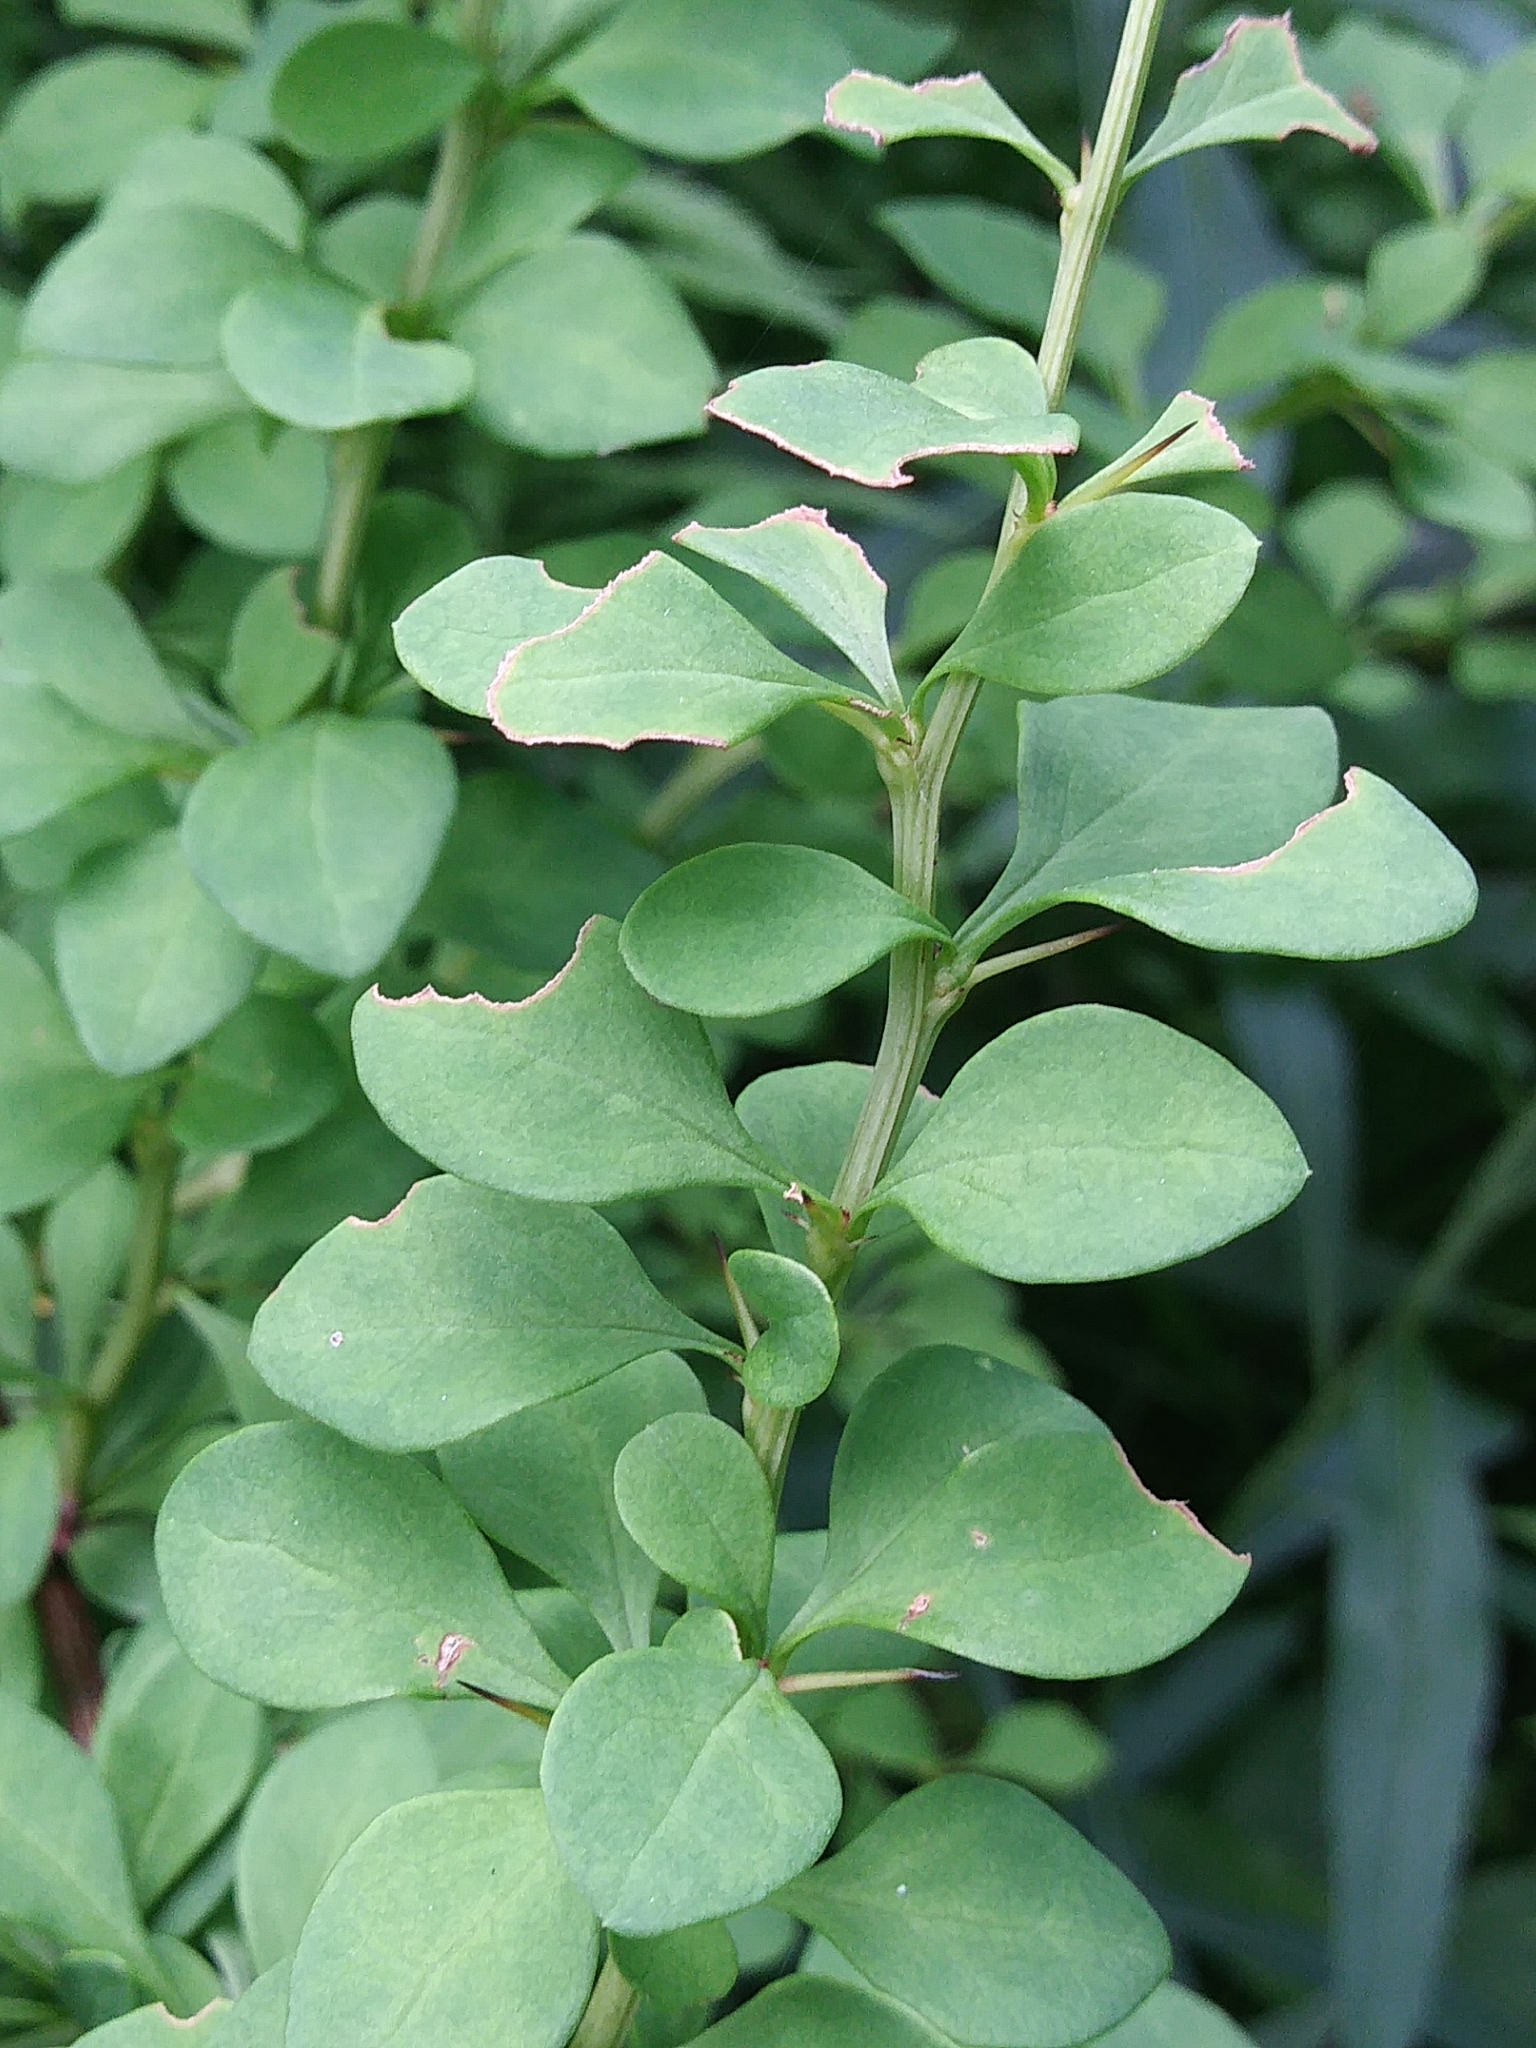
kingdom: Plantae
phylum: Tracheophyta
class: Magnoliopsida
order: Ranunculales
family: Berberidaceae
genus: Berberis
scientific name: Berberis thunbergii
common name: Japanese barberry
